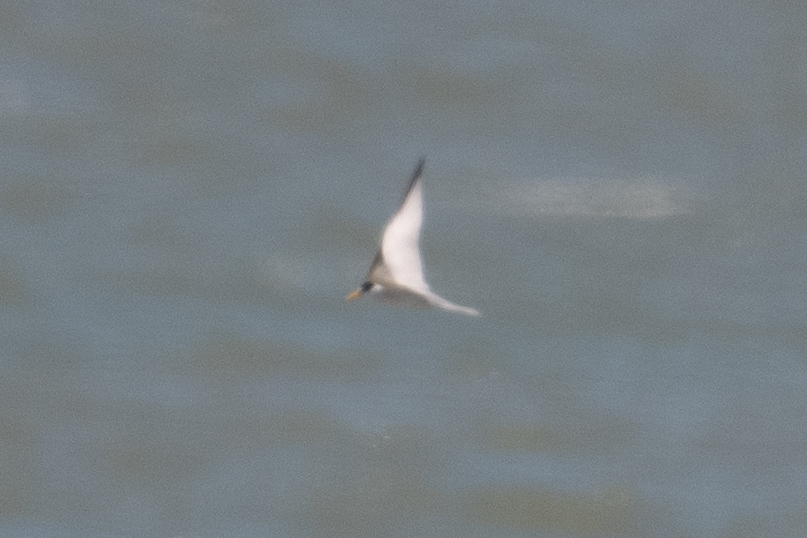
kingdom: Animalia
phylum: Chordata
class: Aves
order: Charadriiformes
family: Laridae
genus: Sternula
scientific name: Sternula antillarum
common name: Least tern
